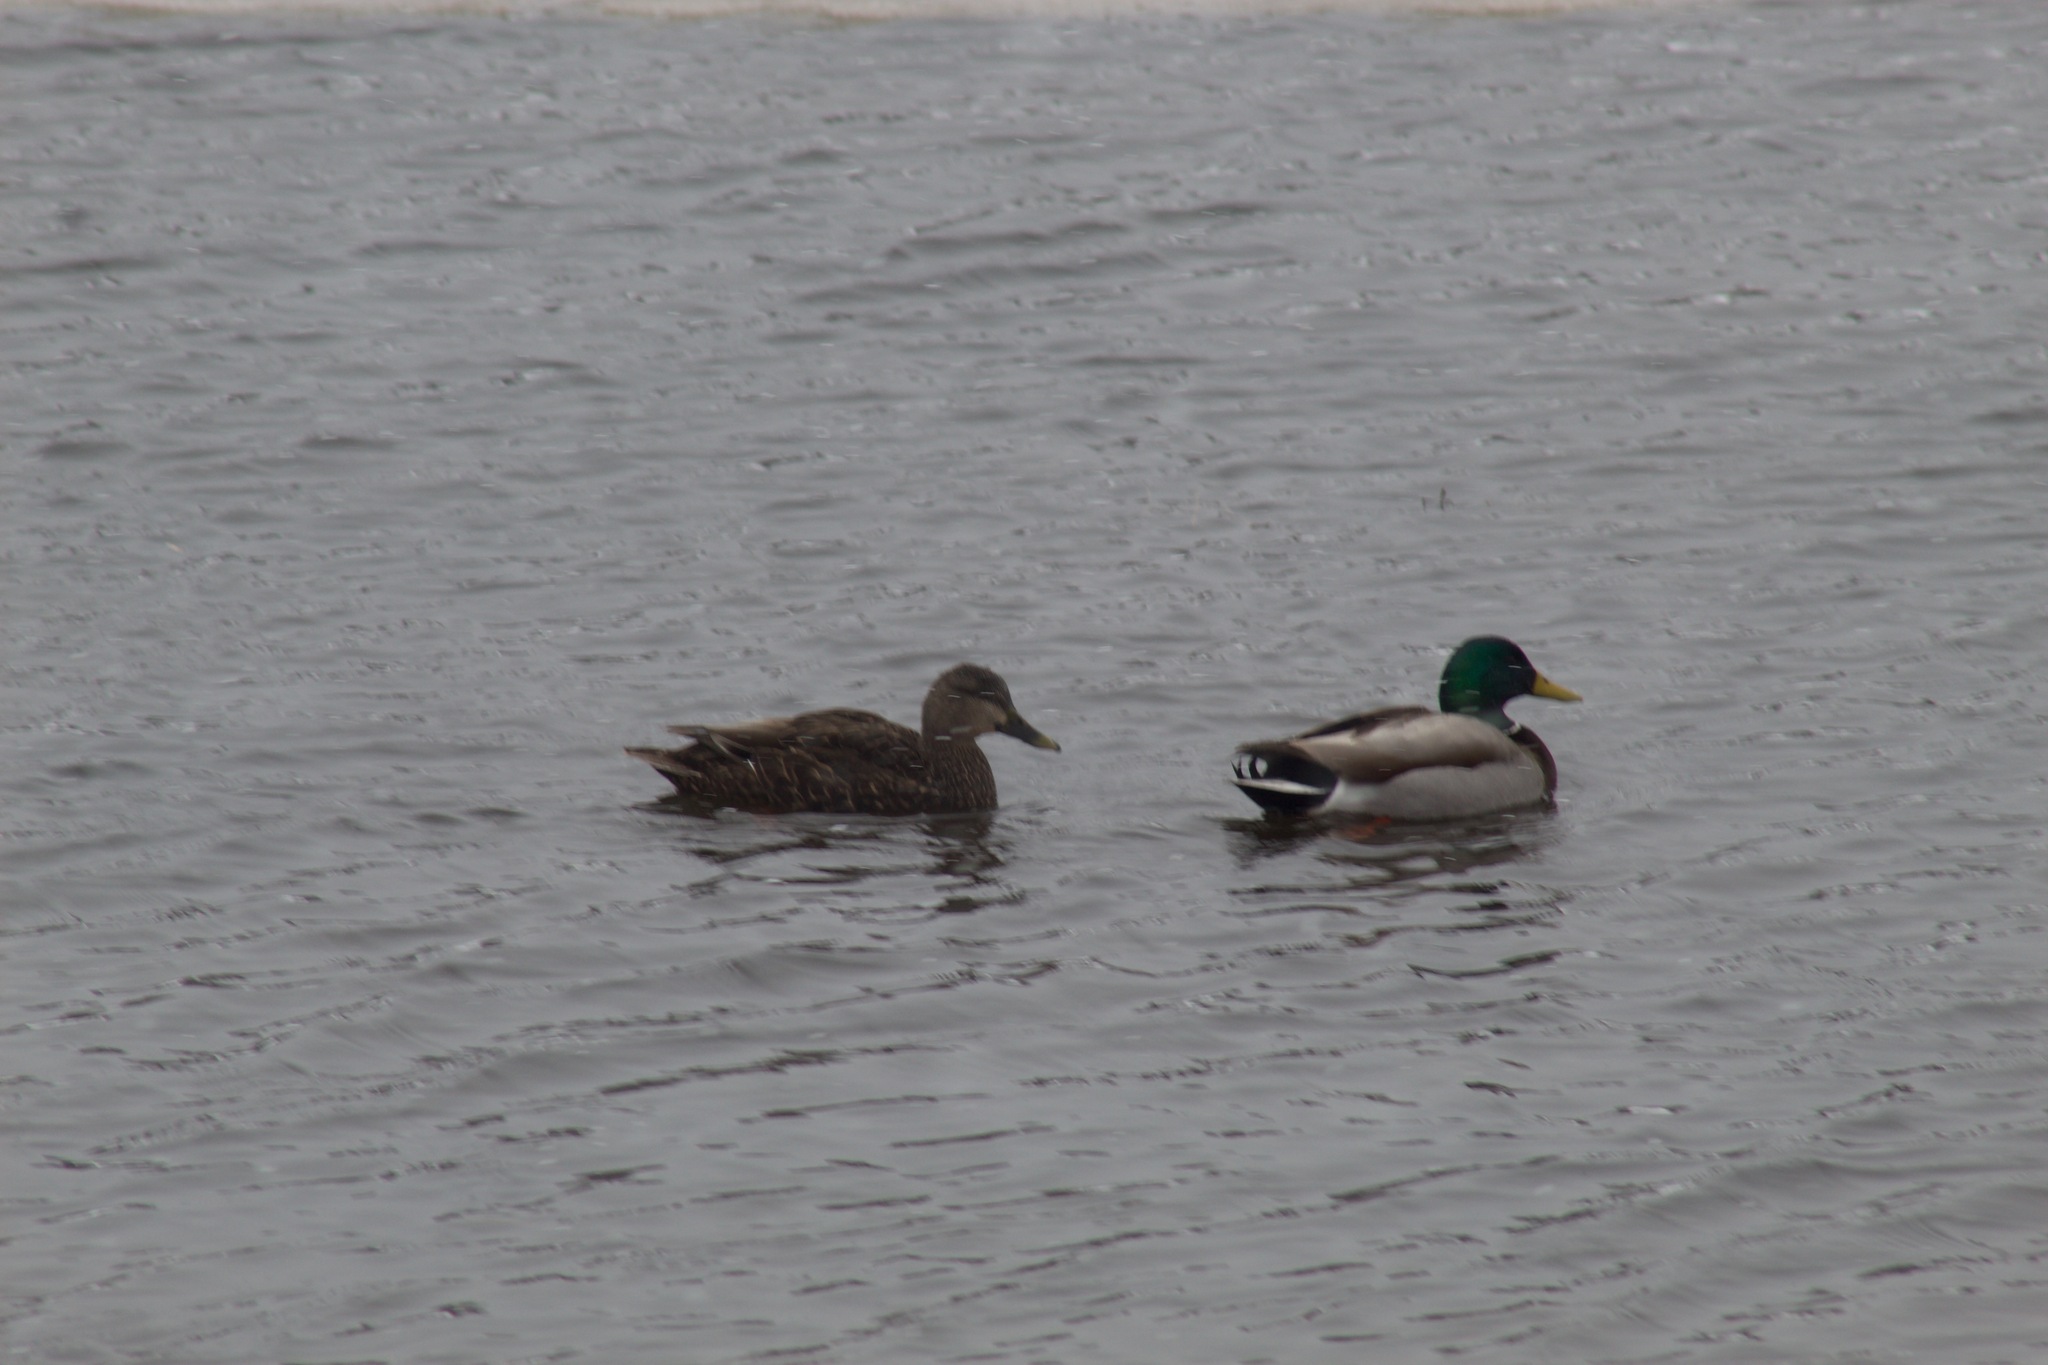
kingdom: Animalia
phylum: Chordata
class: Aves
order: Anseriformes
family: Anatidae
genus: Anas
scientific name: Anas platyrhynchos
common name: Mallard
